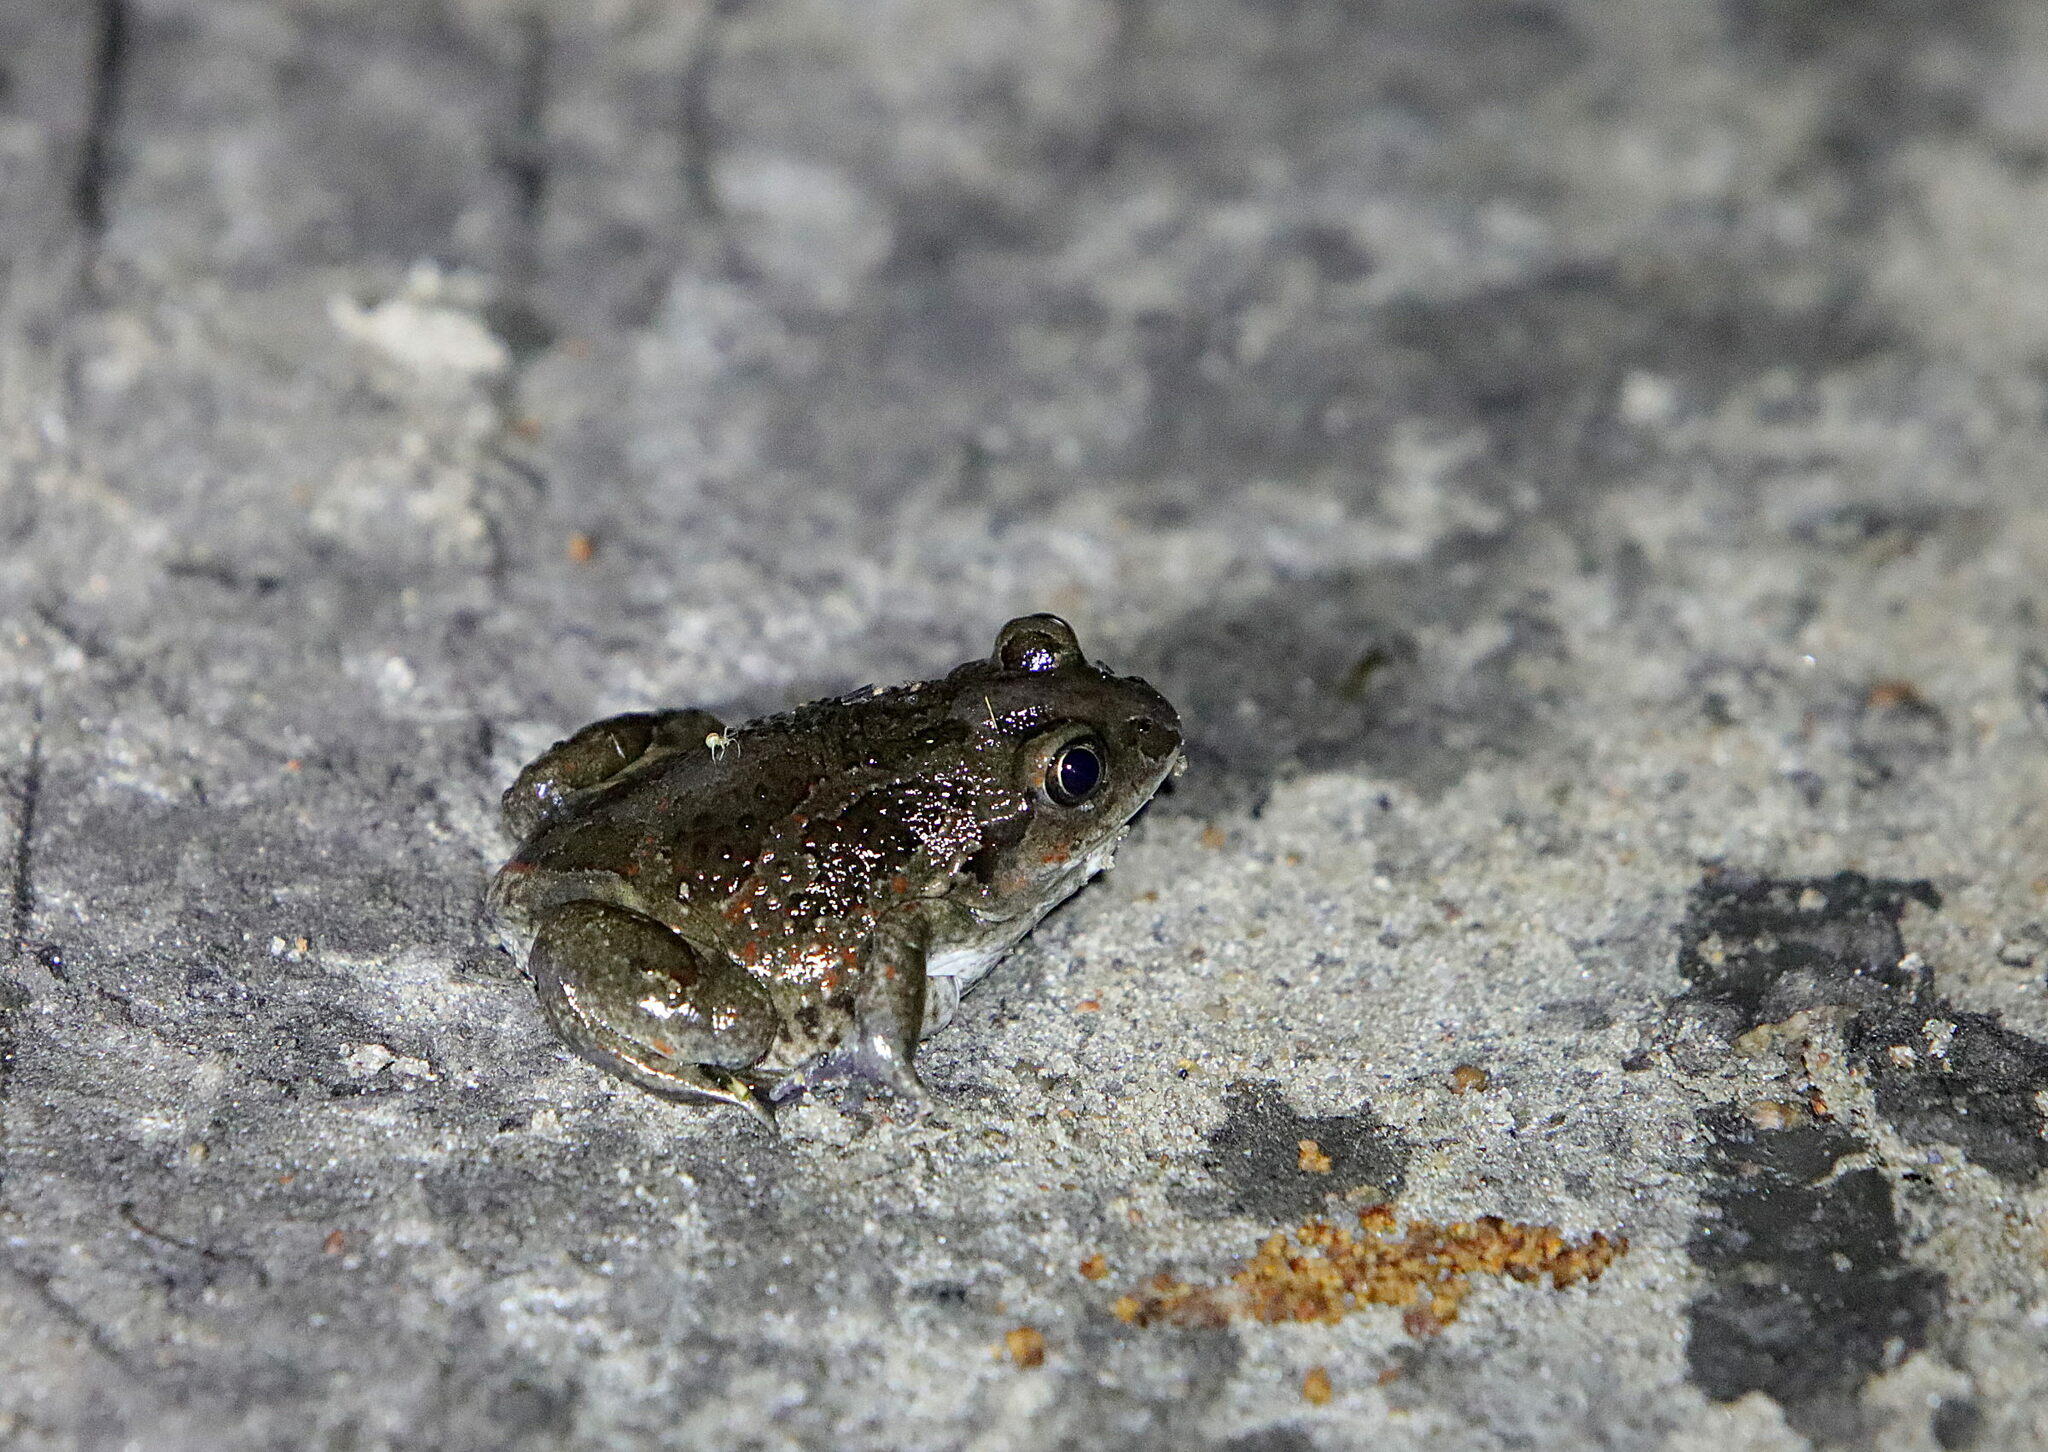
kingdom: Animalia
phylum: Chordata
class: Amphibia
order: Anura
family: Pelobatidae
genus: Pelobates
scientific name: Pelobates fuscus
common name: Common eurasian spadefoot toad
